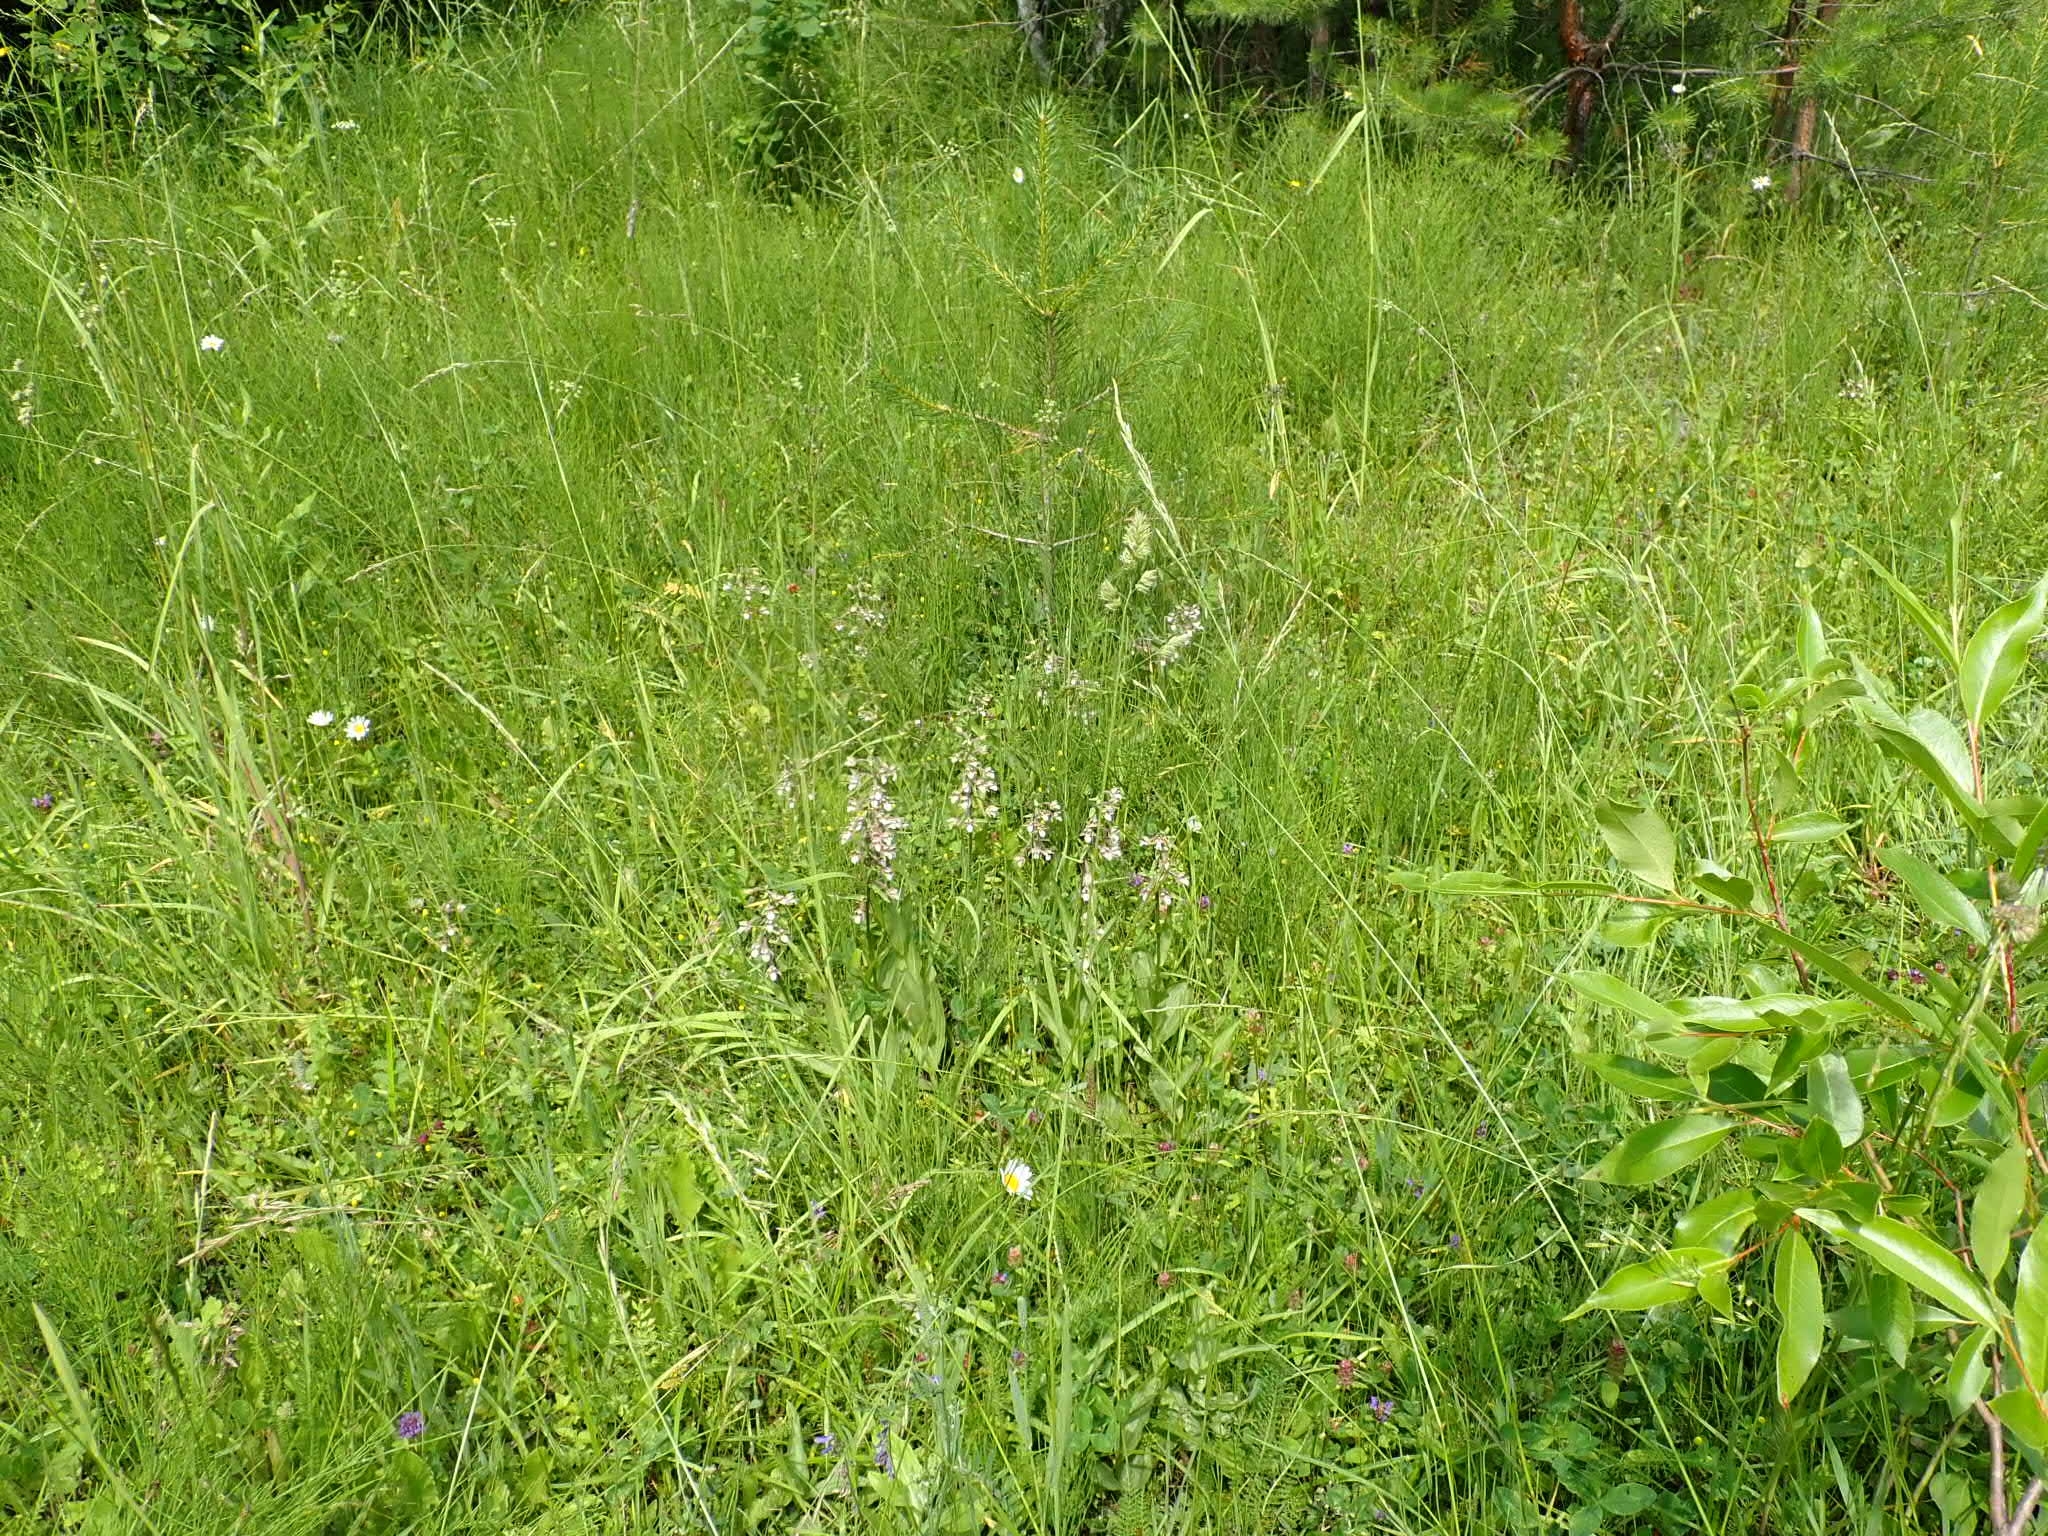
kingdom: Plantae
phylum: Tracheophyta
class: Liliopsida
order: Asparagales
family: Orchidaceae
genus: Epipactis
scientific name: Epipactis palustris
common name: Marsh helleborine
